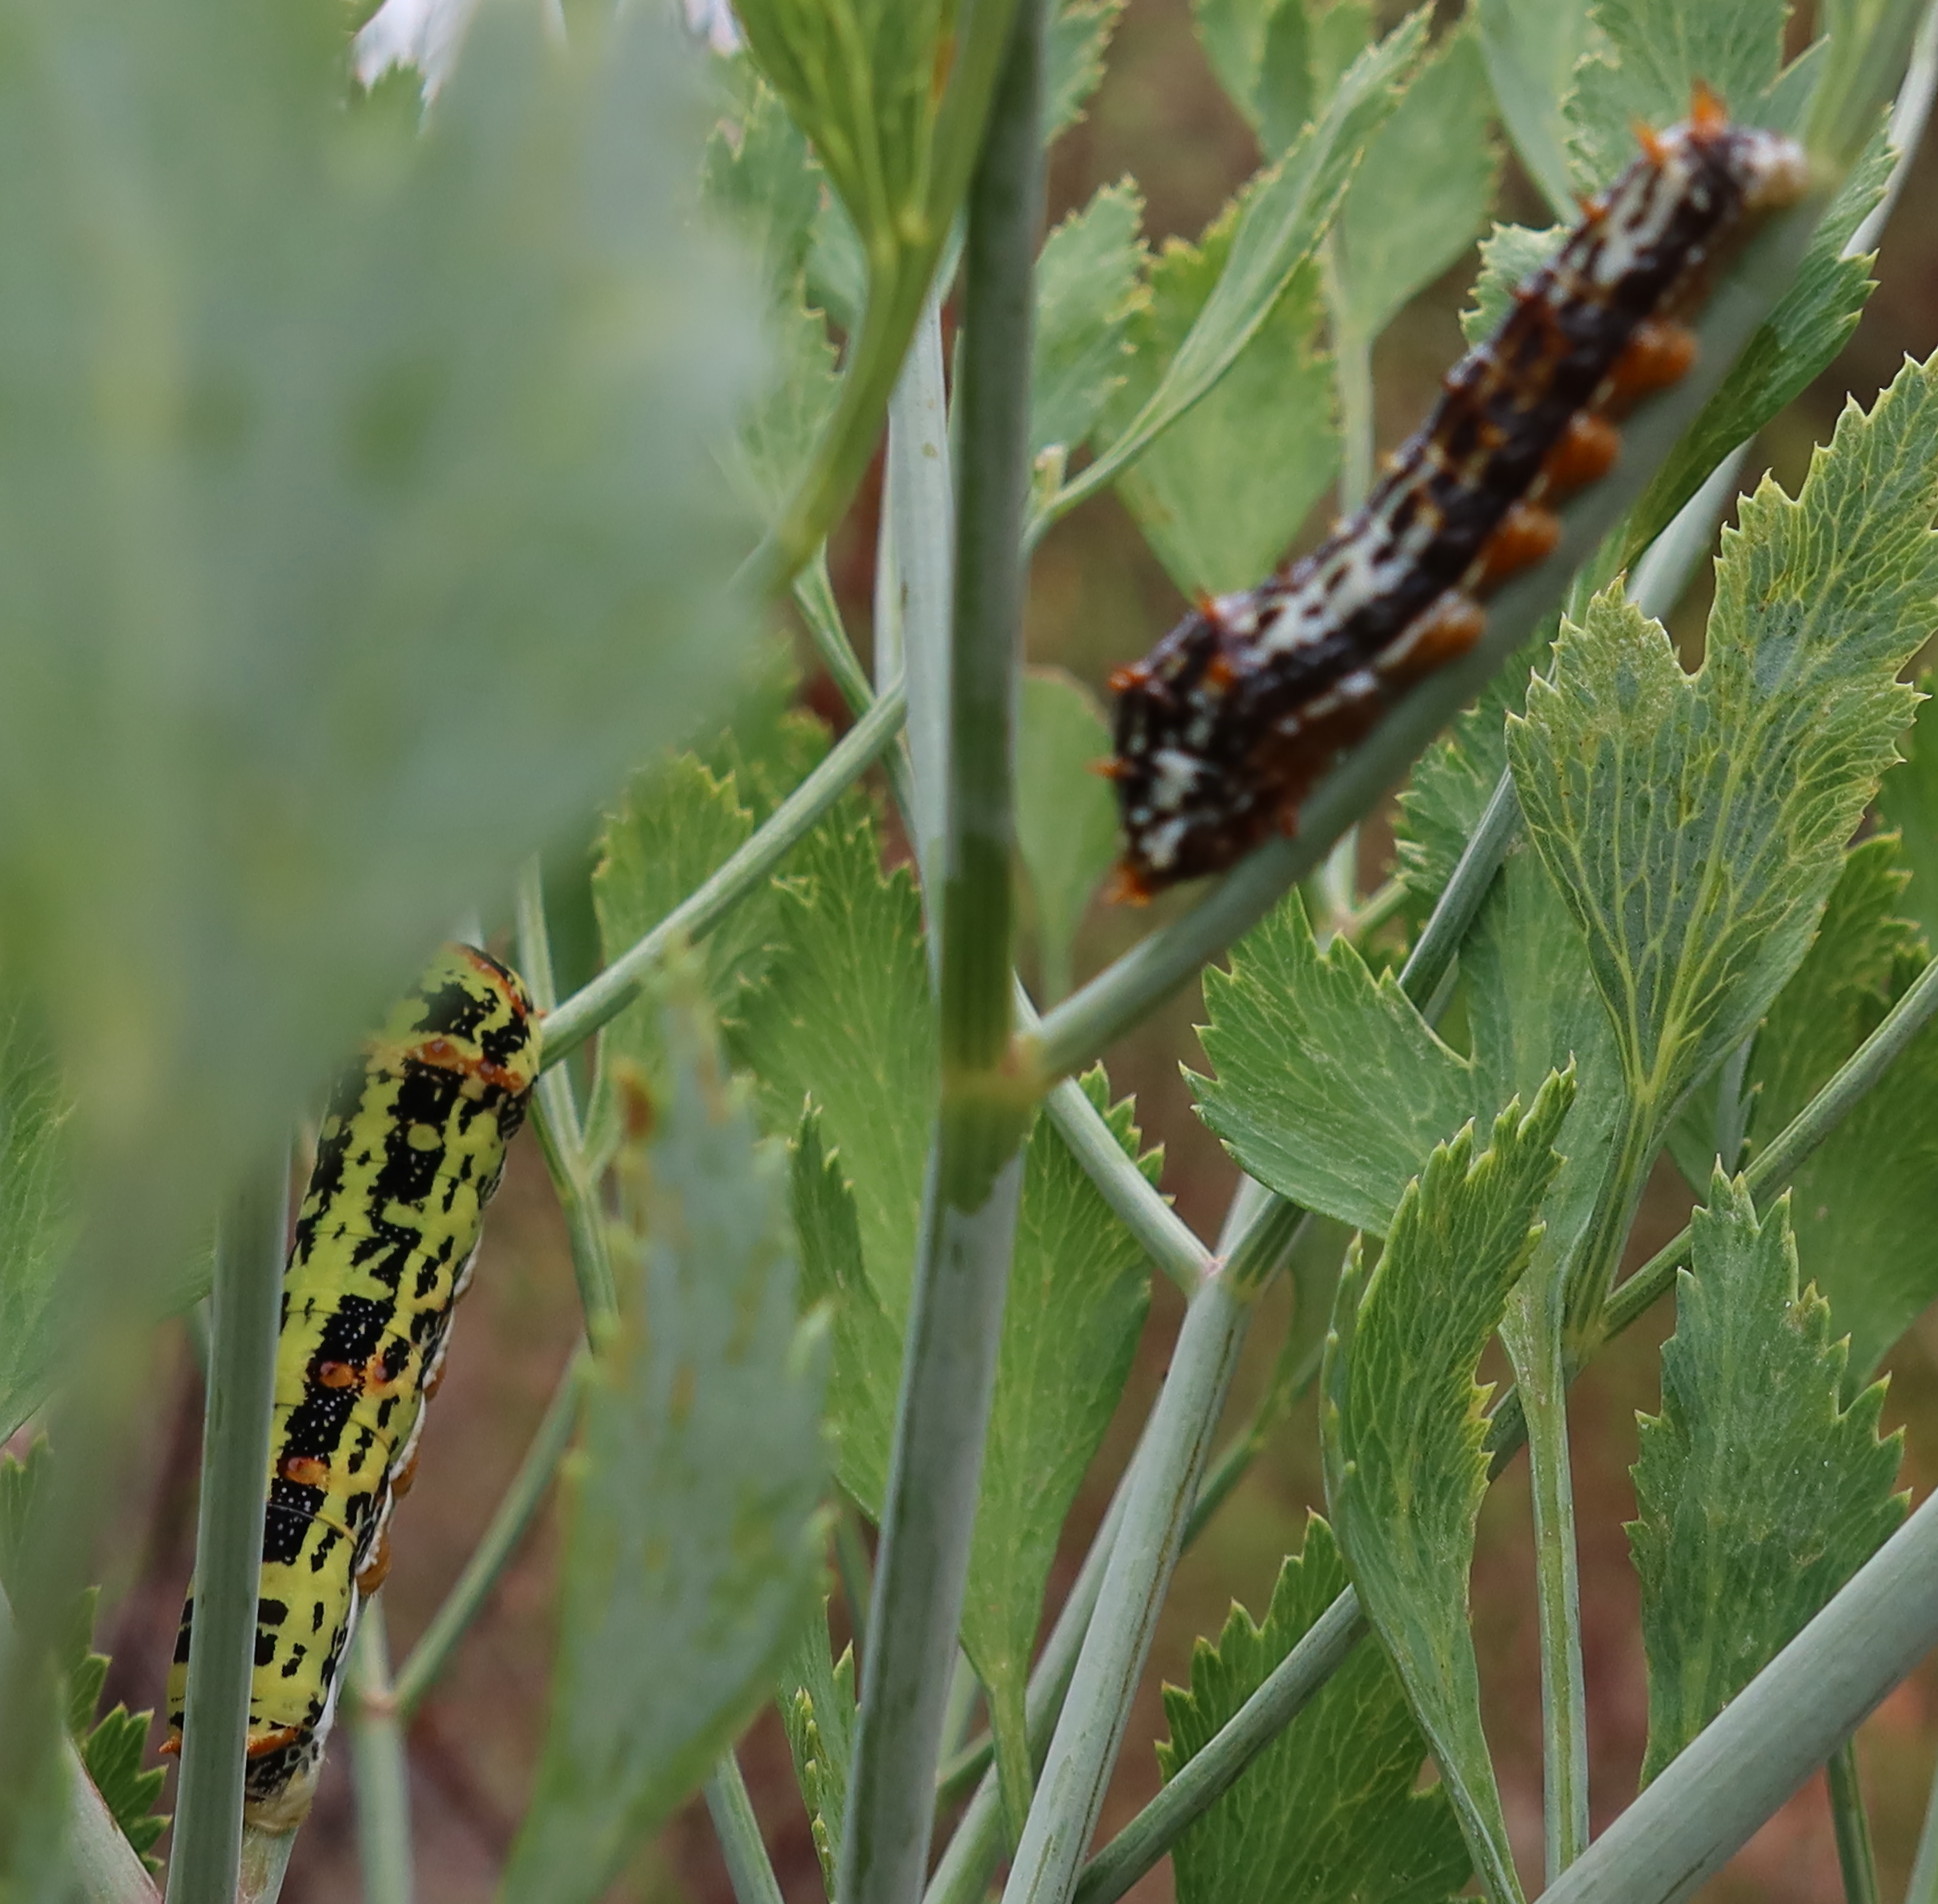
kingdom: Animalia
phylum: Arthropoda
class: Insecta
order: Lepidoptera
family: Papilionidae
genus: Papilio
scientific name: Papilio demodocus
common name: Christmas butterfly
